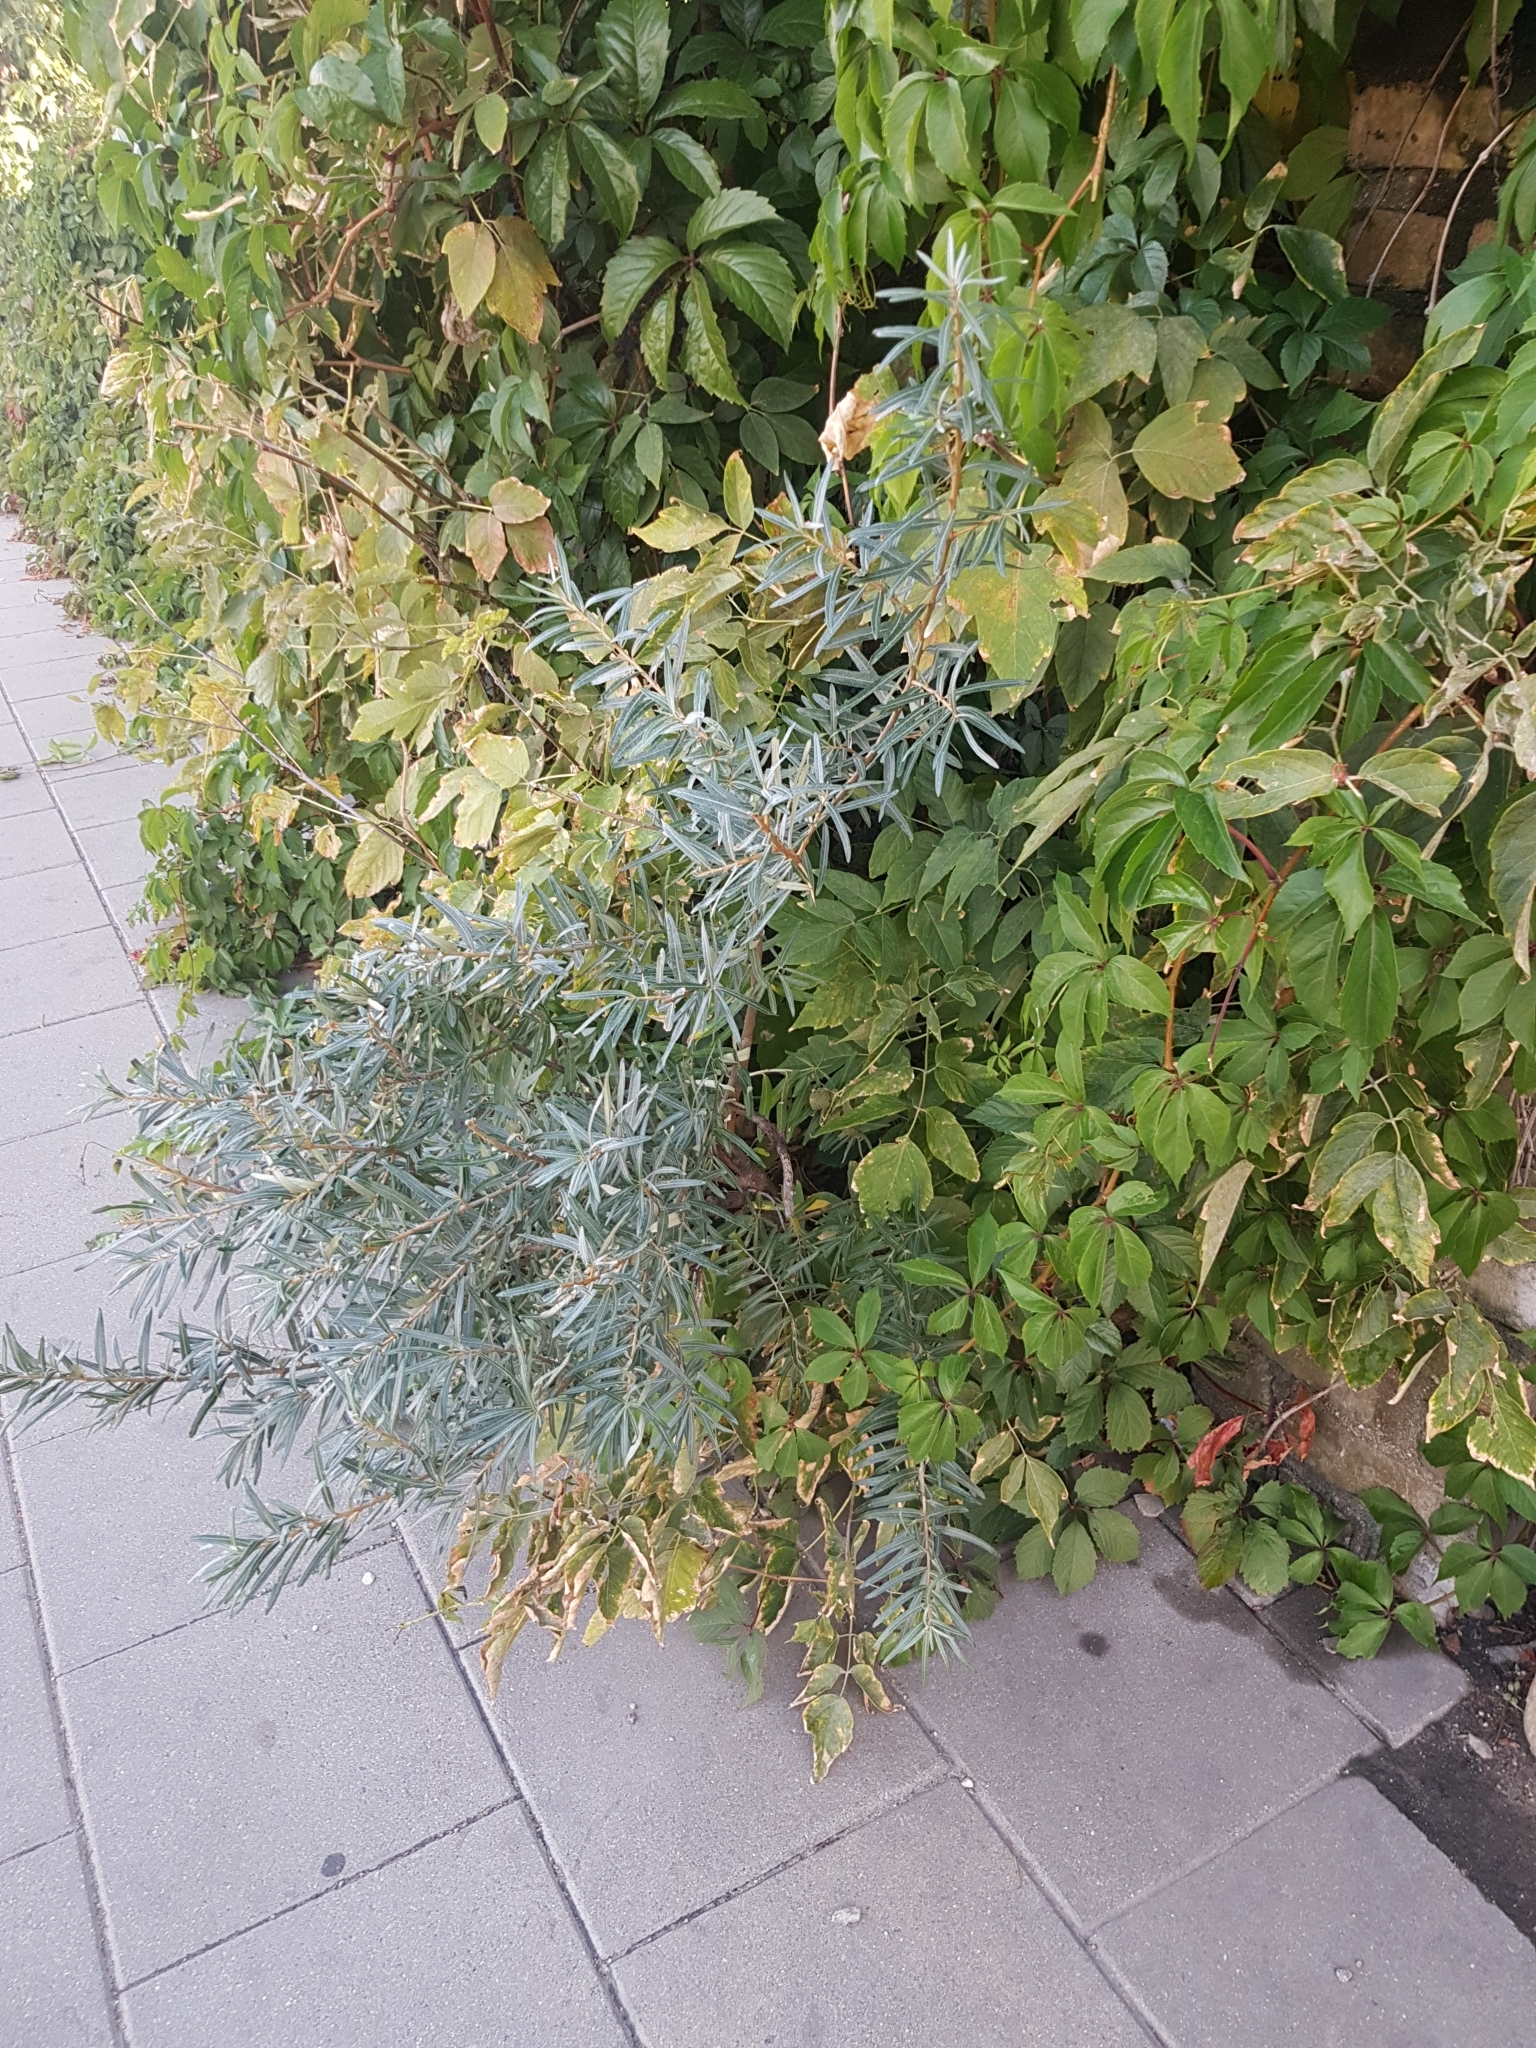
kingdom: Plantae
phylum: Tracheophyta
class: Magnoliopsida
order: Rosales
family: Elaeagnaceae
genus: Hippophae
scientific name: Hippophae rhamnoides
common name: Sea-buckthorn
